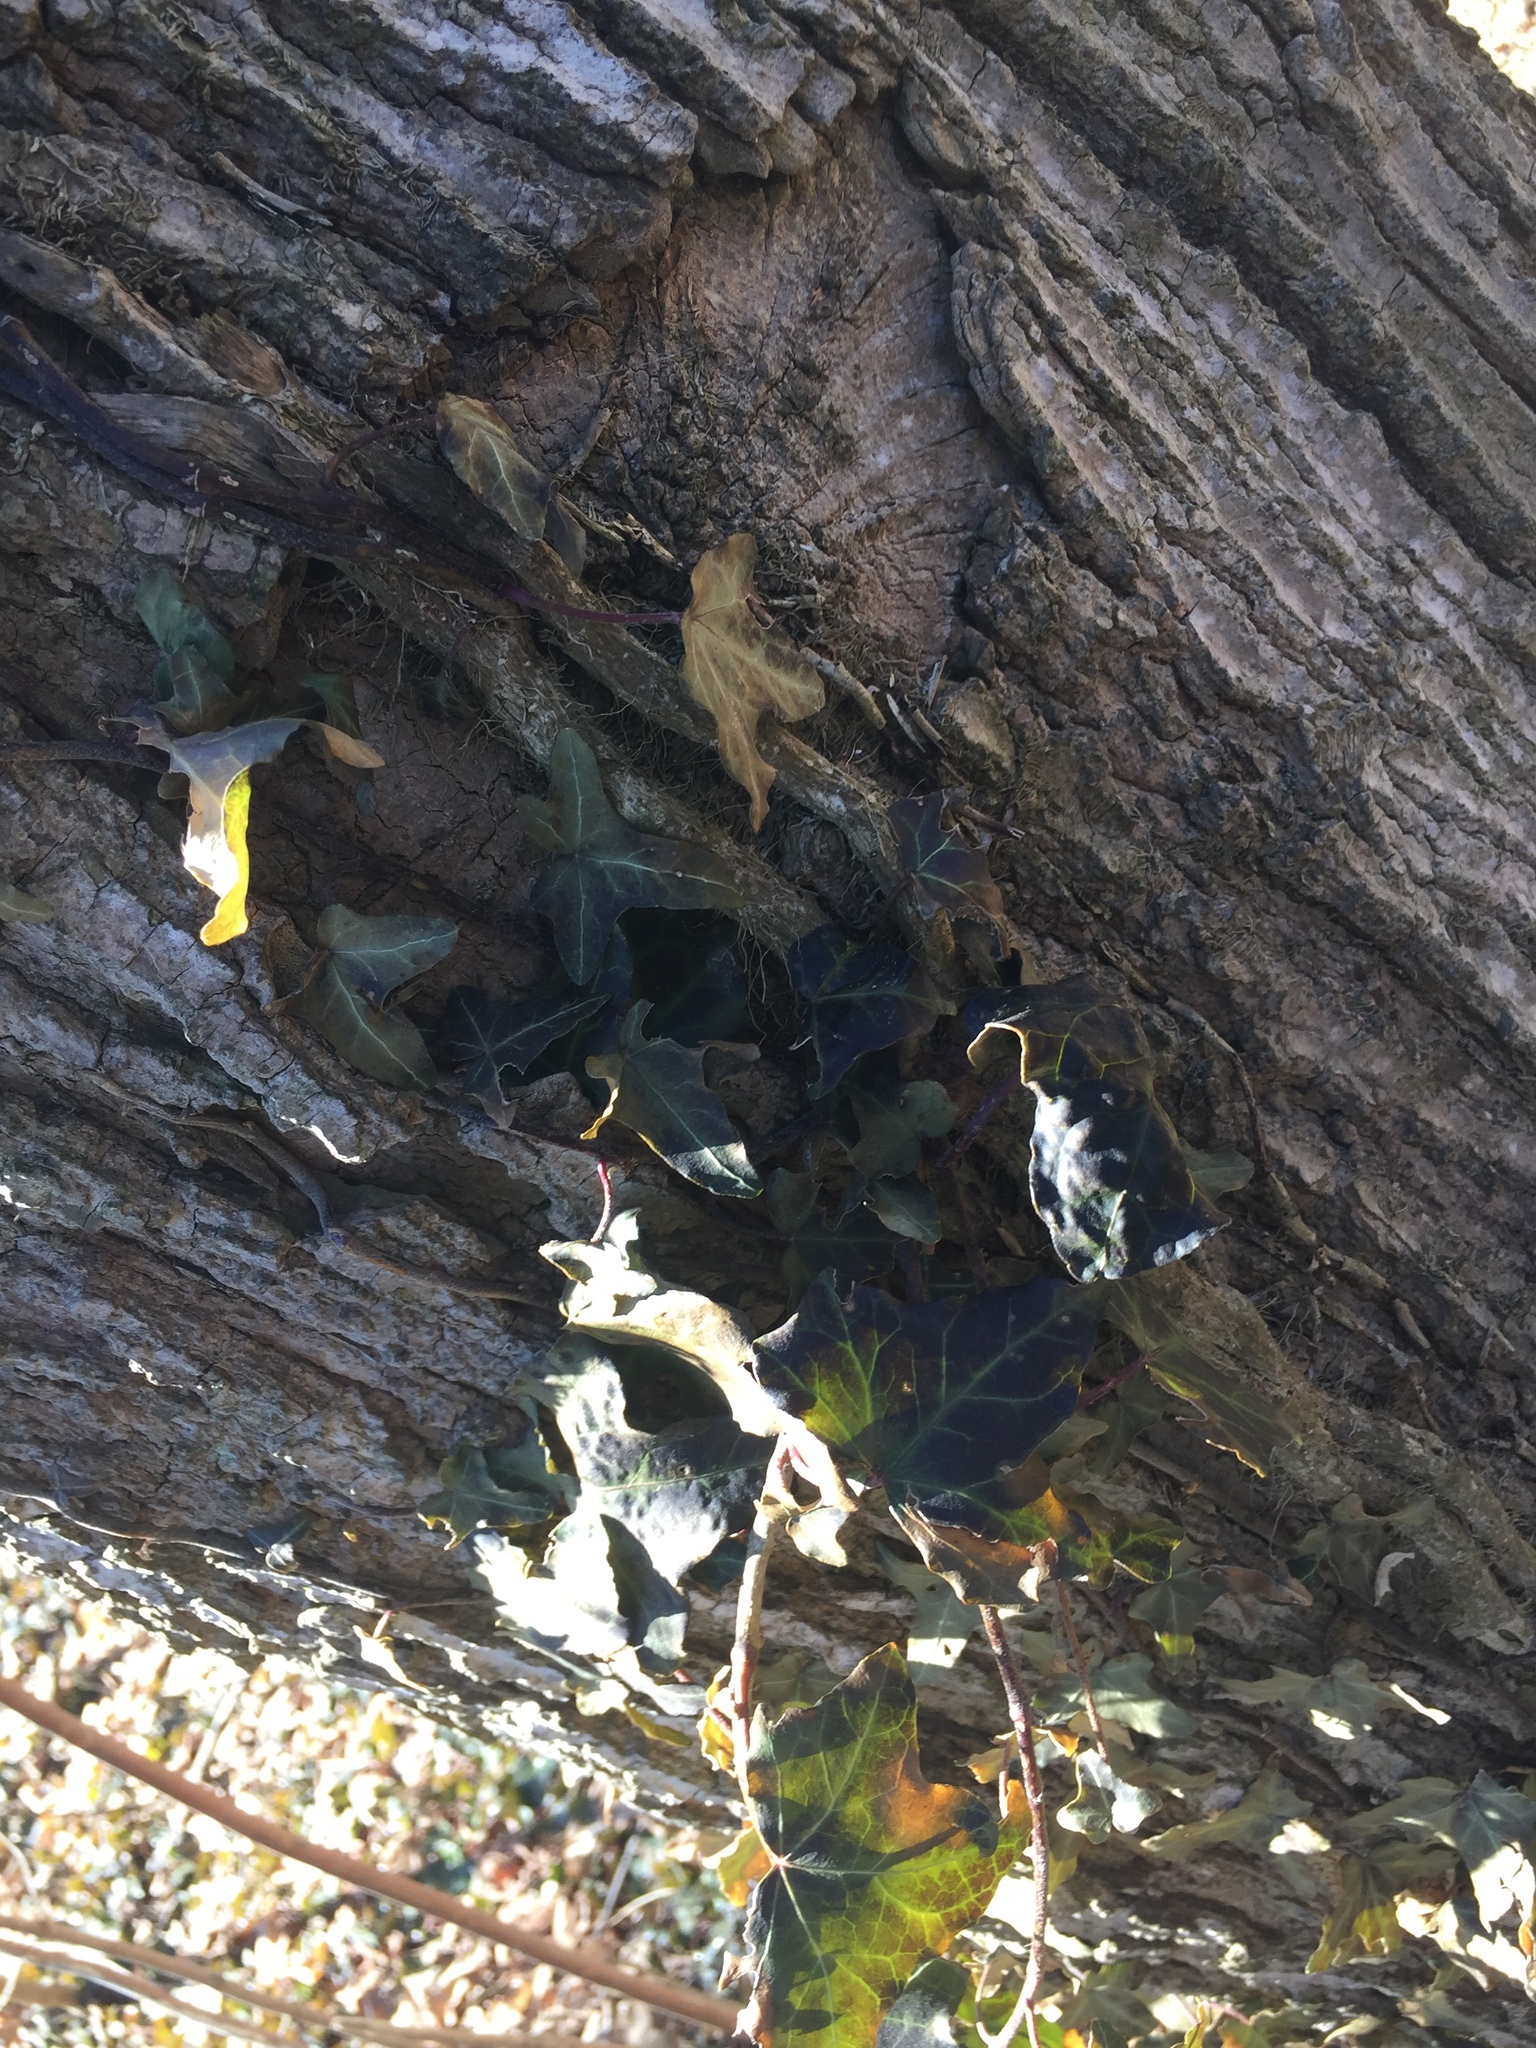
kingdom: Plantae
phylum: Tracheophyta
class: Magnoliopsida
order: Apiales
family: Araliaceae
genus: Hedera
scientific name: Hedera helix
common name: Ivy
